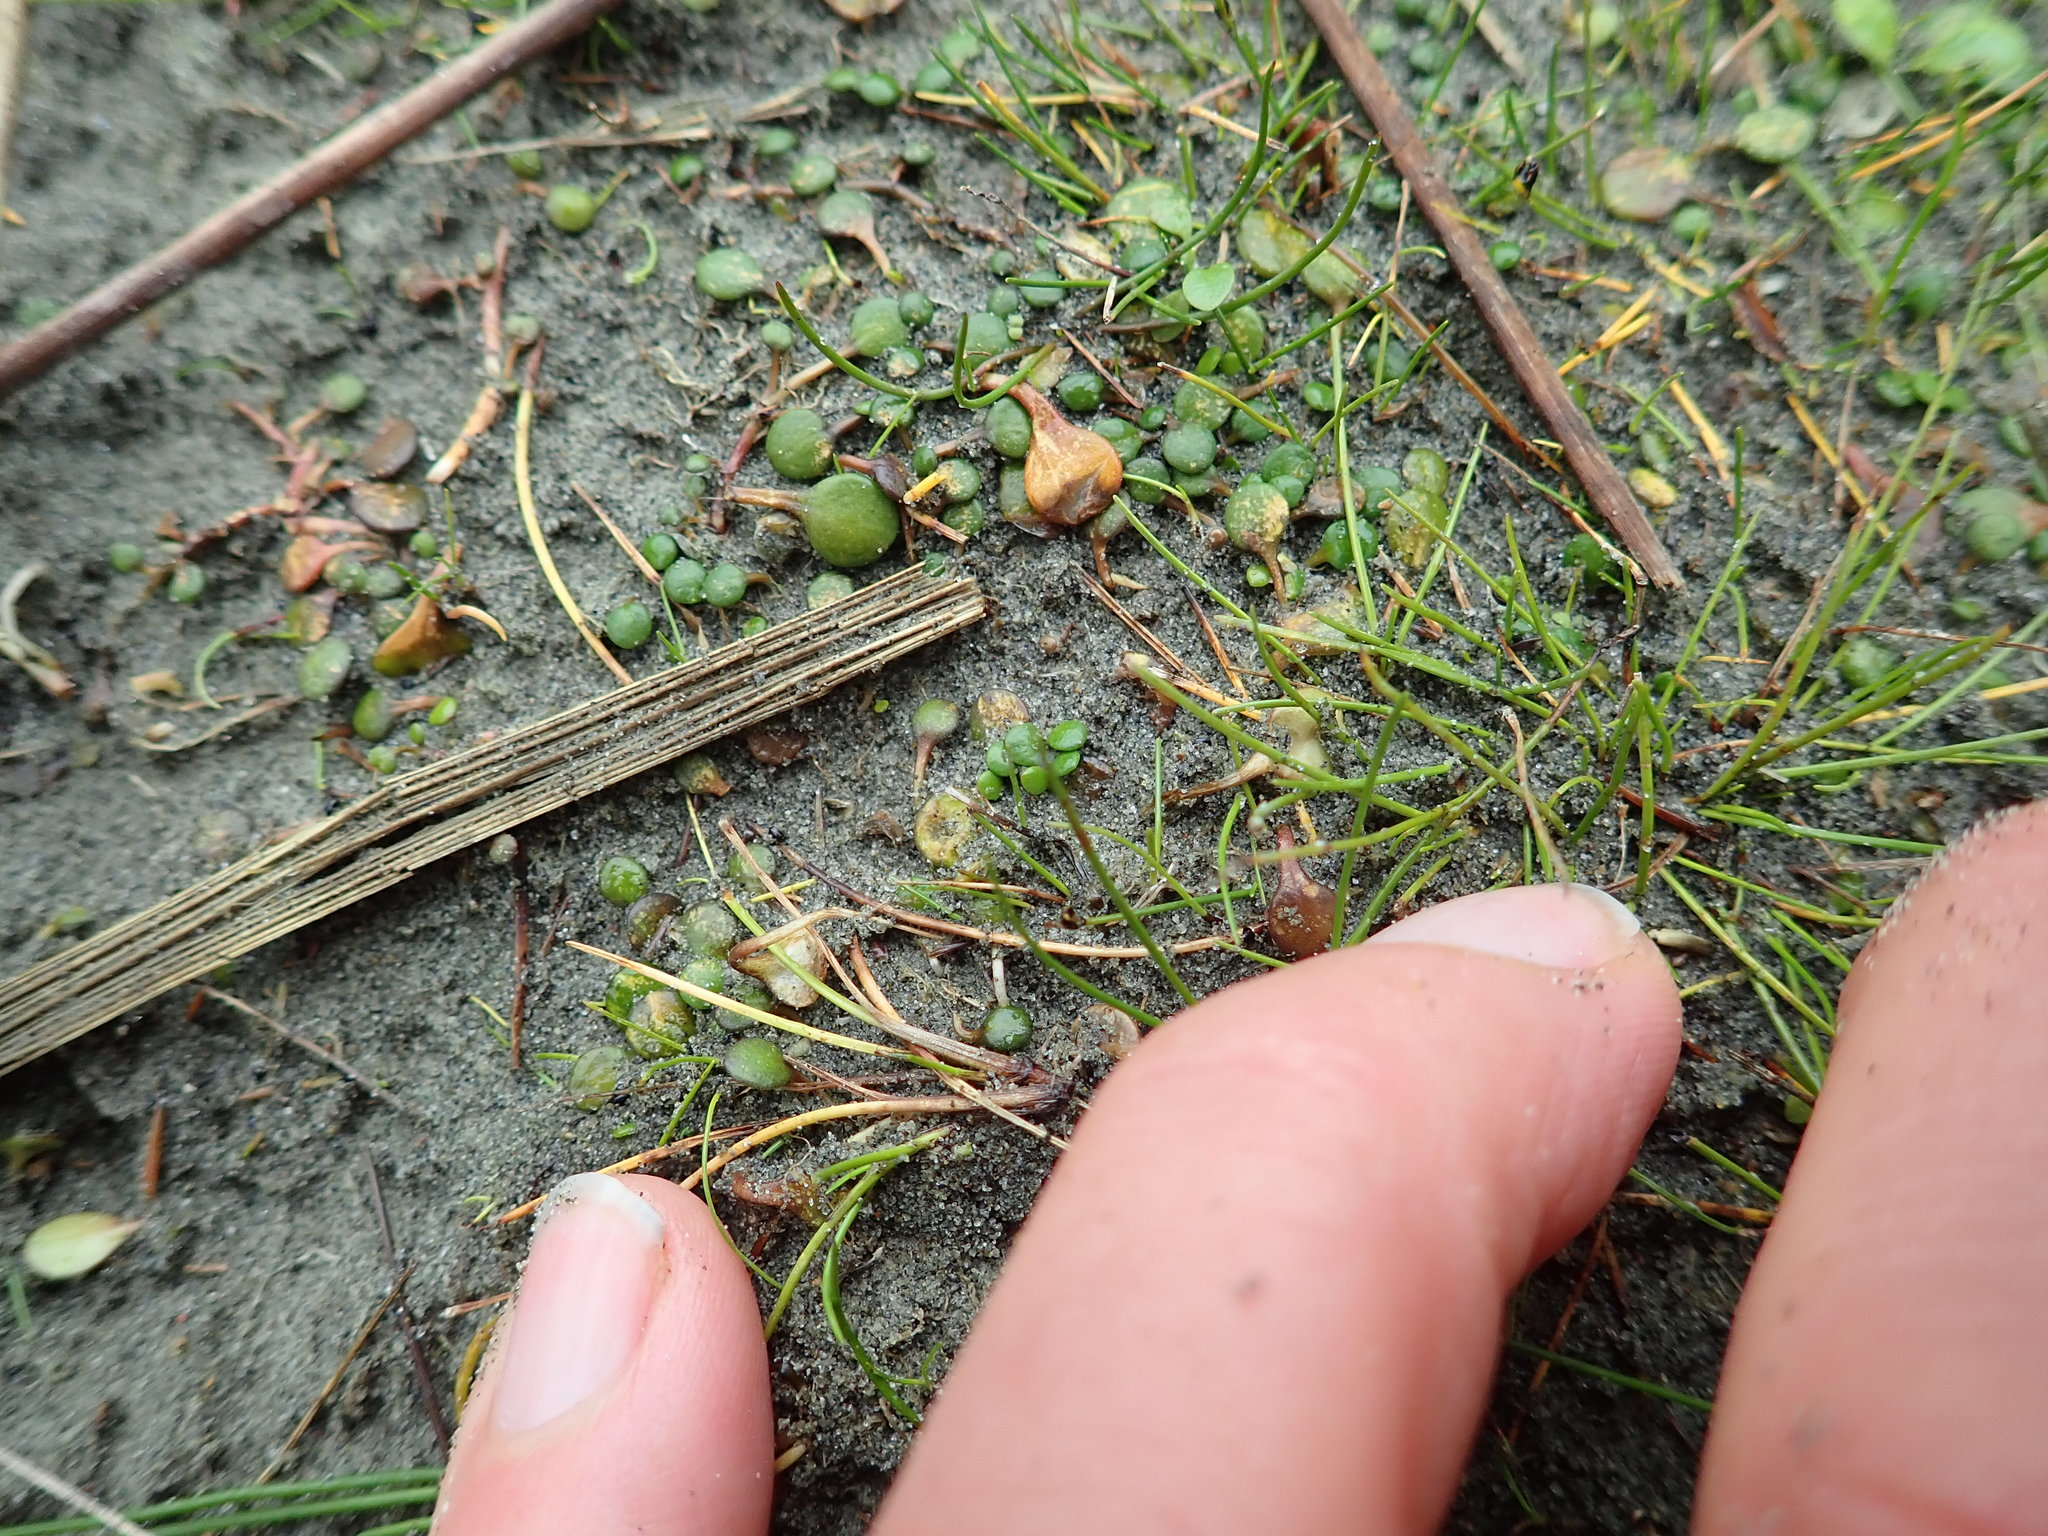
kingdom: Plantae
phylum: Tracheophyta
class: Magnoliopsida
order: Asterales
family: Goodeniaceae
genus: Goodenia
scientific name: Goodenia heenanii
